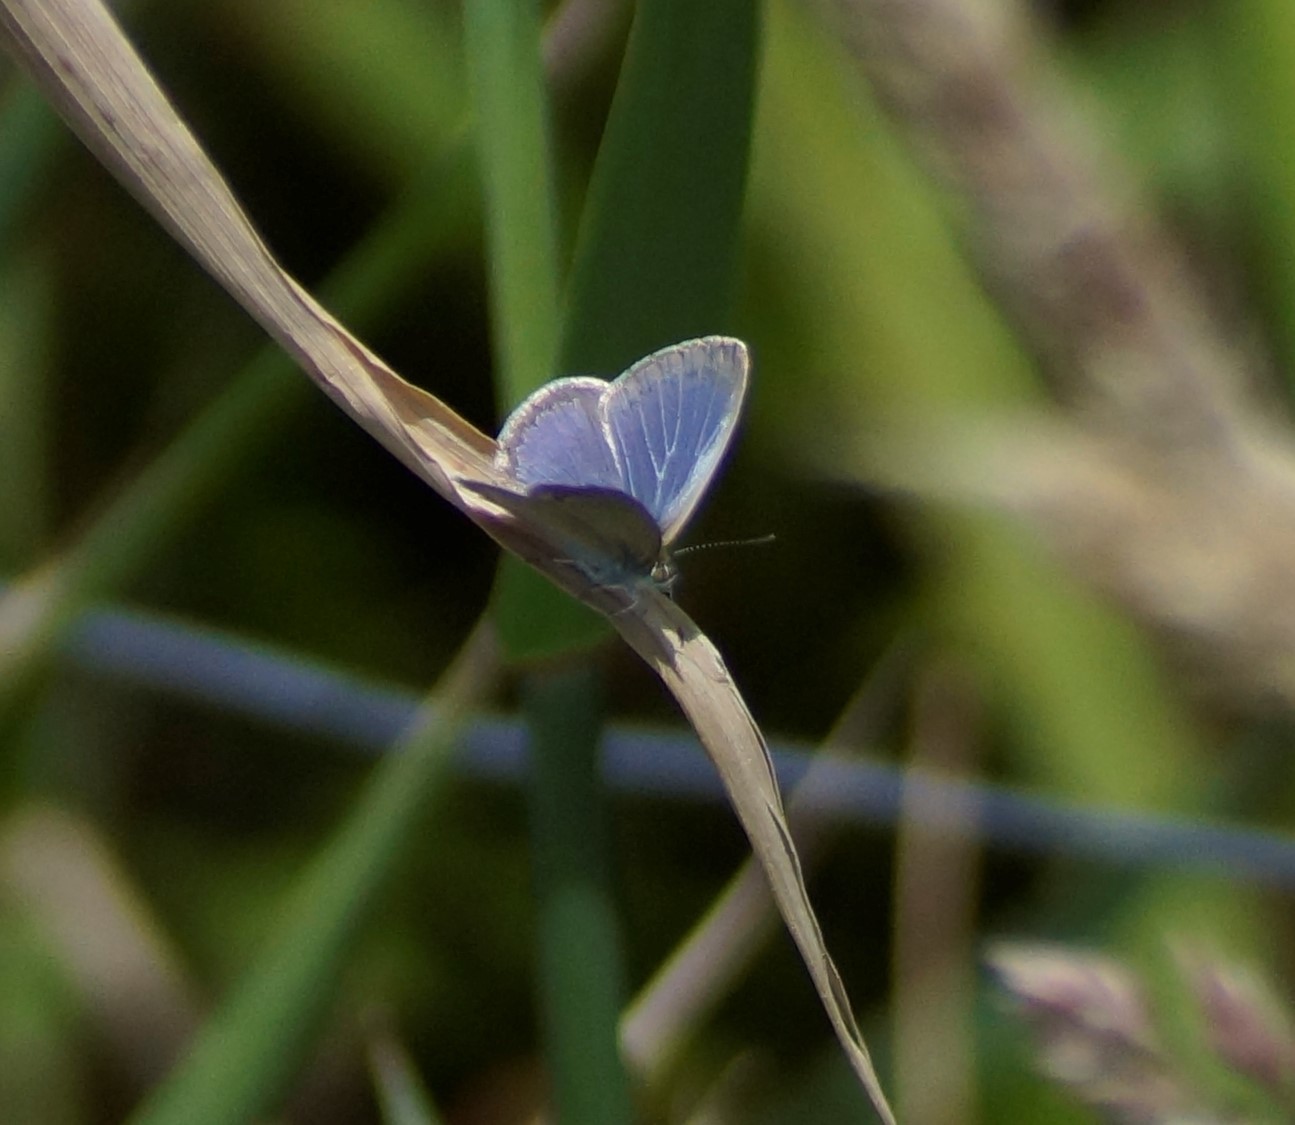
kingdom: Animalia
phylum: Arthropoda
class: Insecta
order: Lepidoptera
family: Lycaenidae
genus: Zizina
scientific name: Zizina otis
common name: Lesser grass blue
